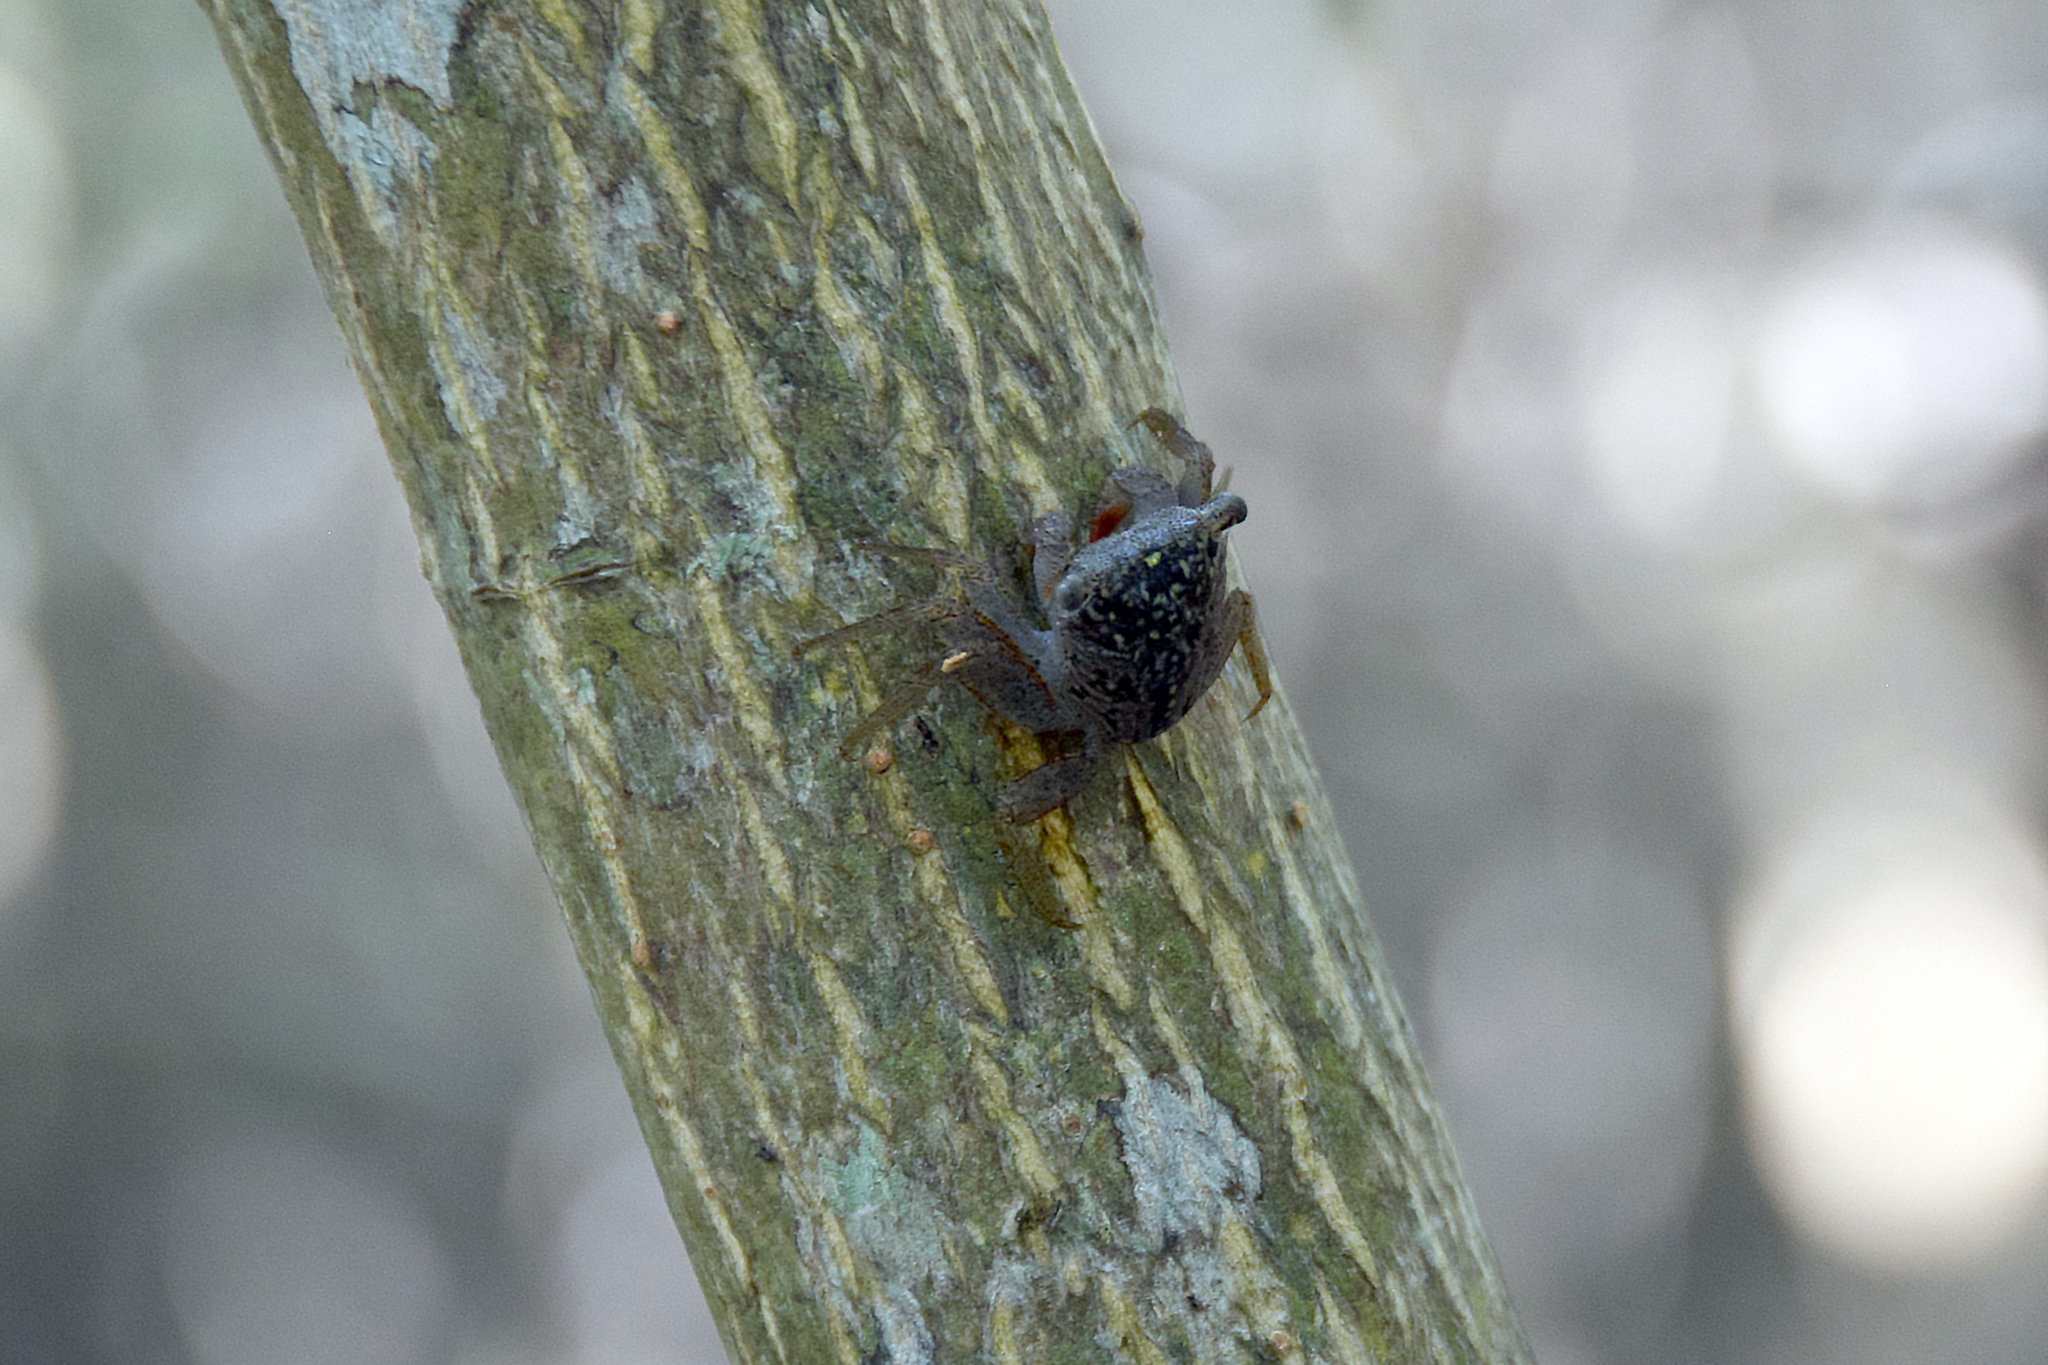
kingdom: Animalia
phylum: Arthropoda
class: Malacostraca
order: Decapoda
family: Sesarmidae
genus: Aratus
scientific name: Aratus pisonii
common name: Mangrove crab
